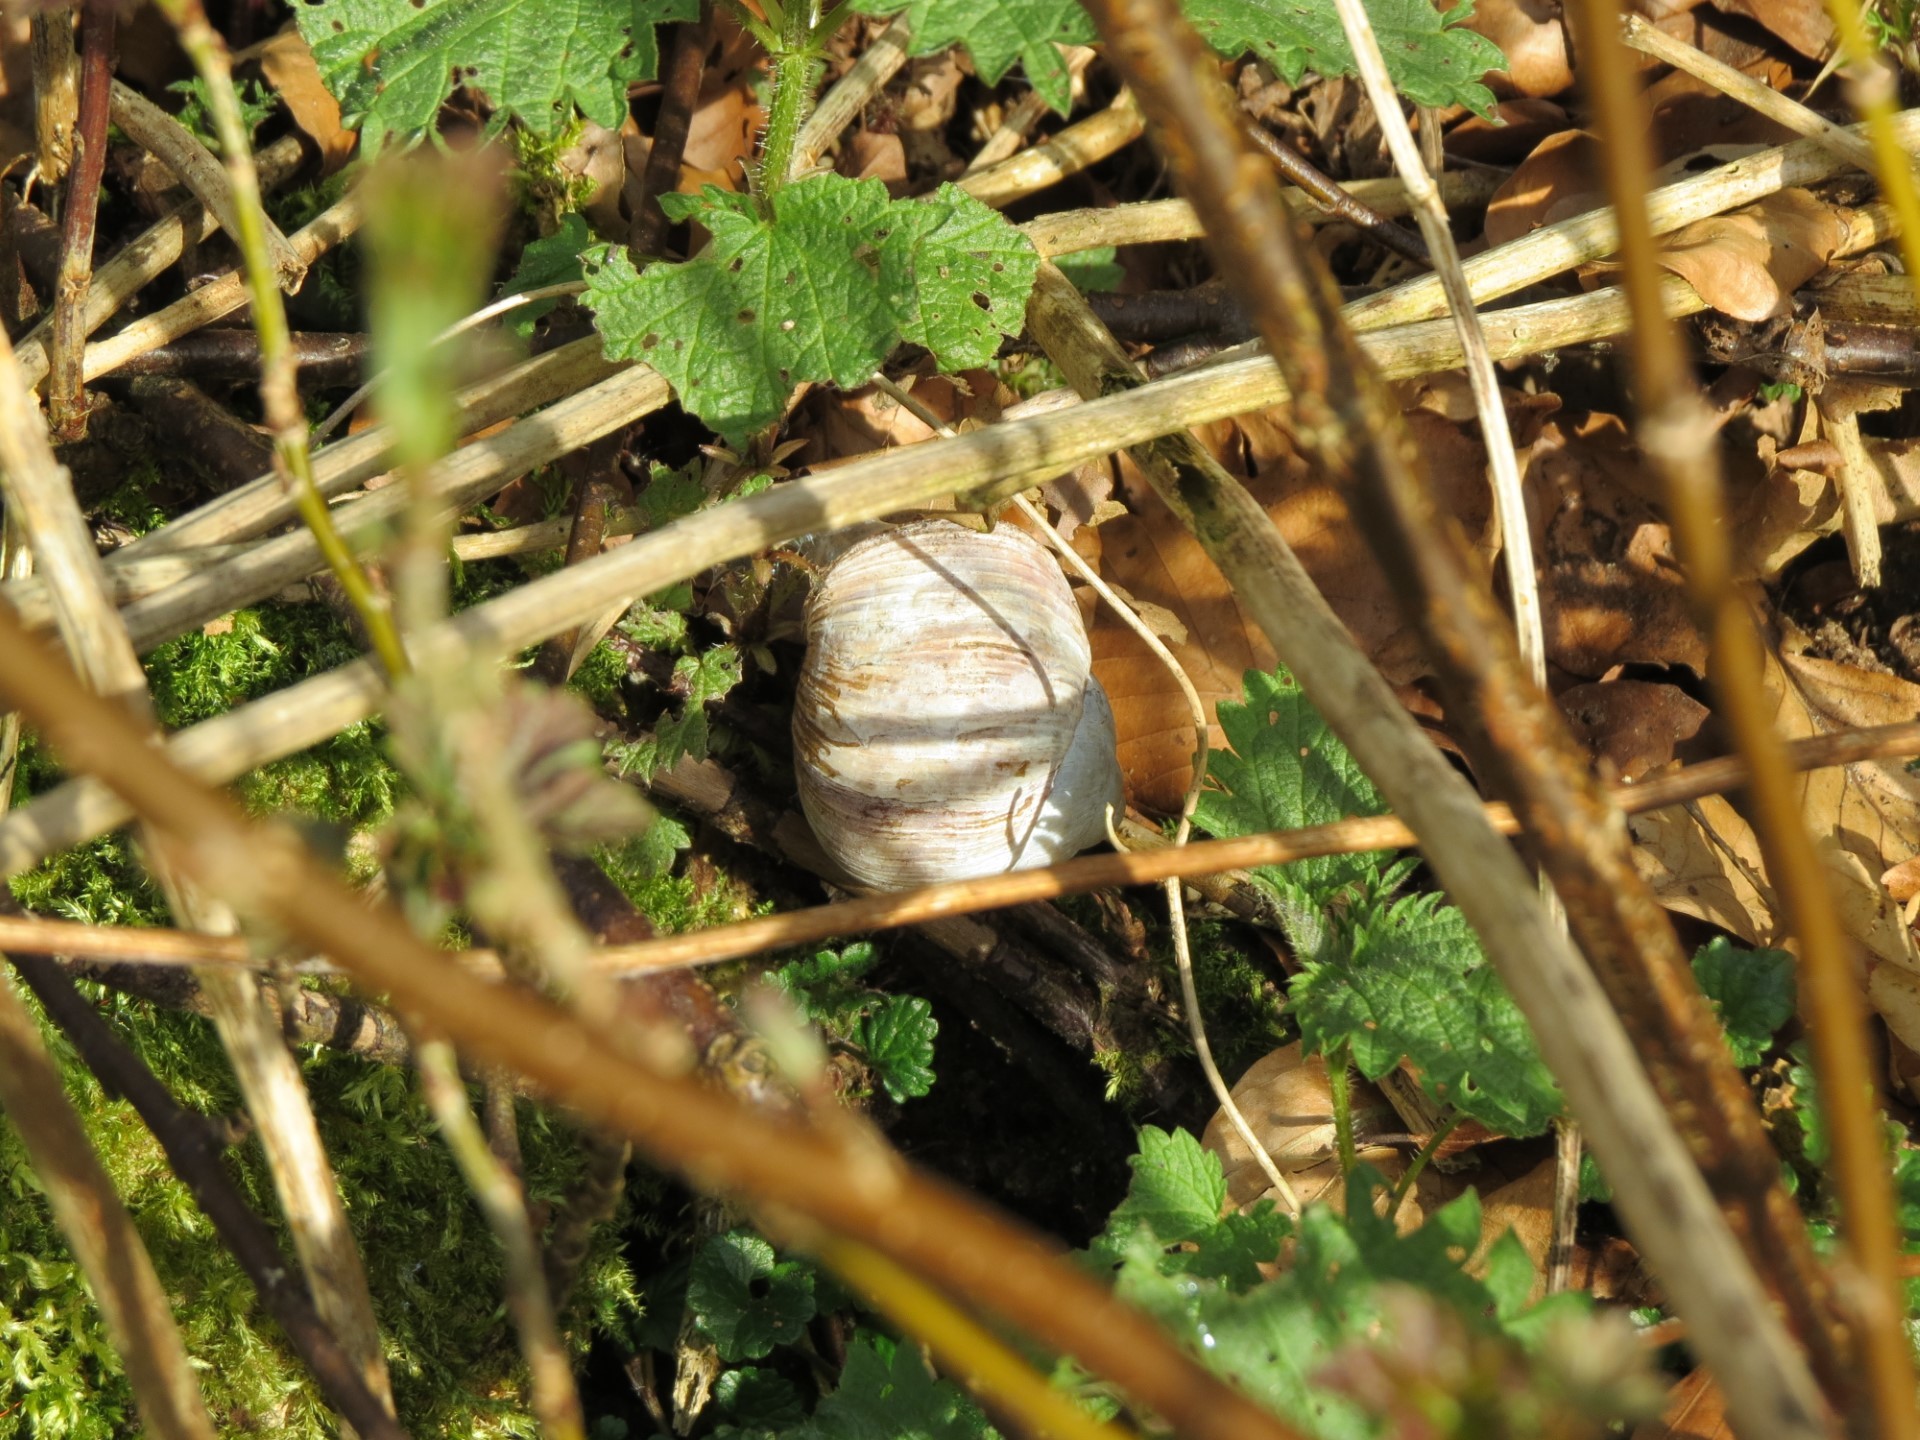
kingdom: Animalia
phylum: Mollusca
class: Gastropoda
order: Stylommatophora
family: Helicidae
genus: Helix
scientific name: Helix pomatia
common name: Roman snail
